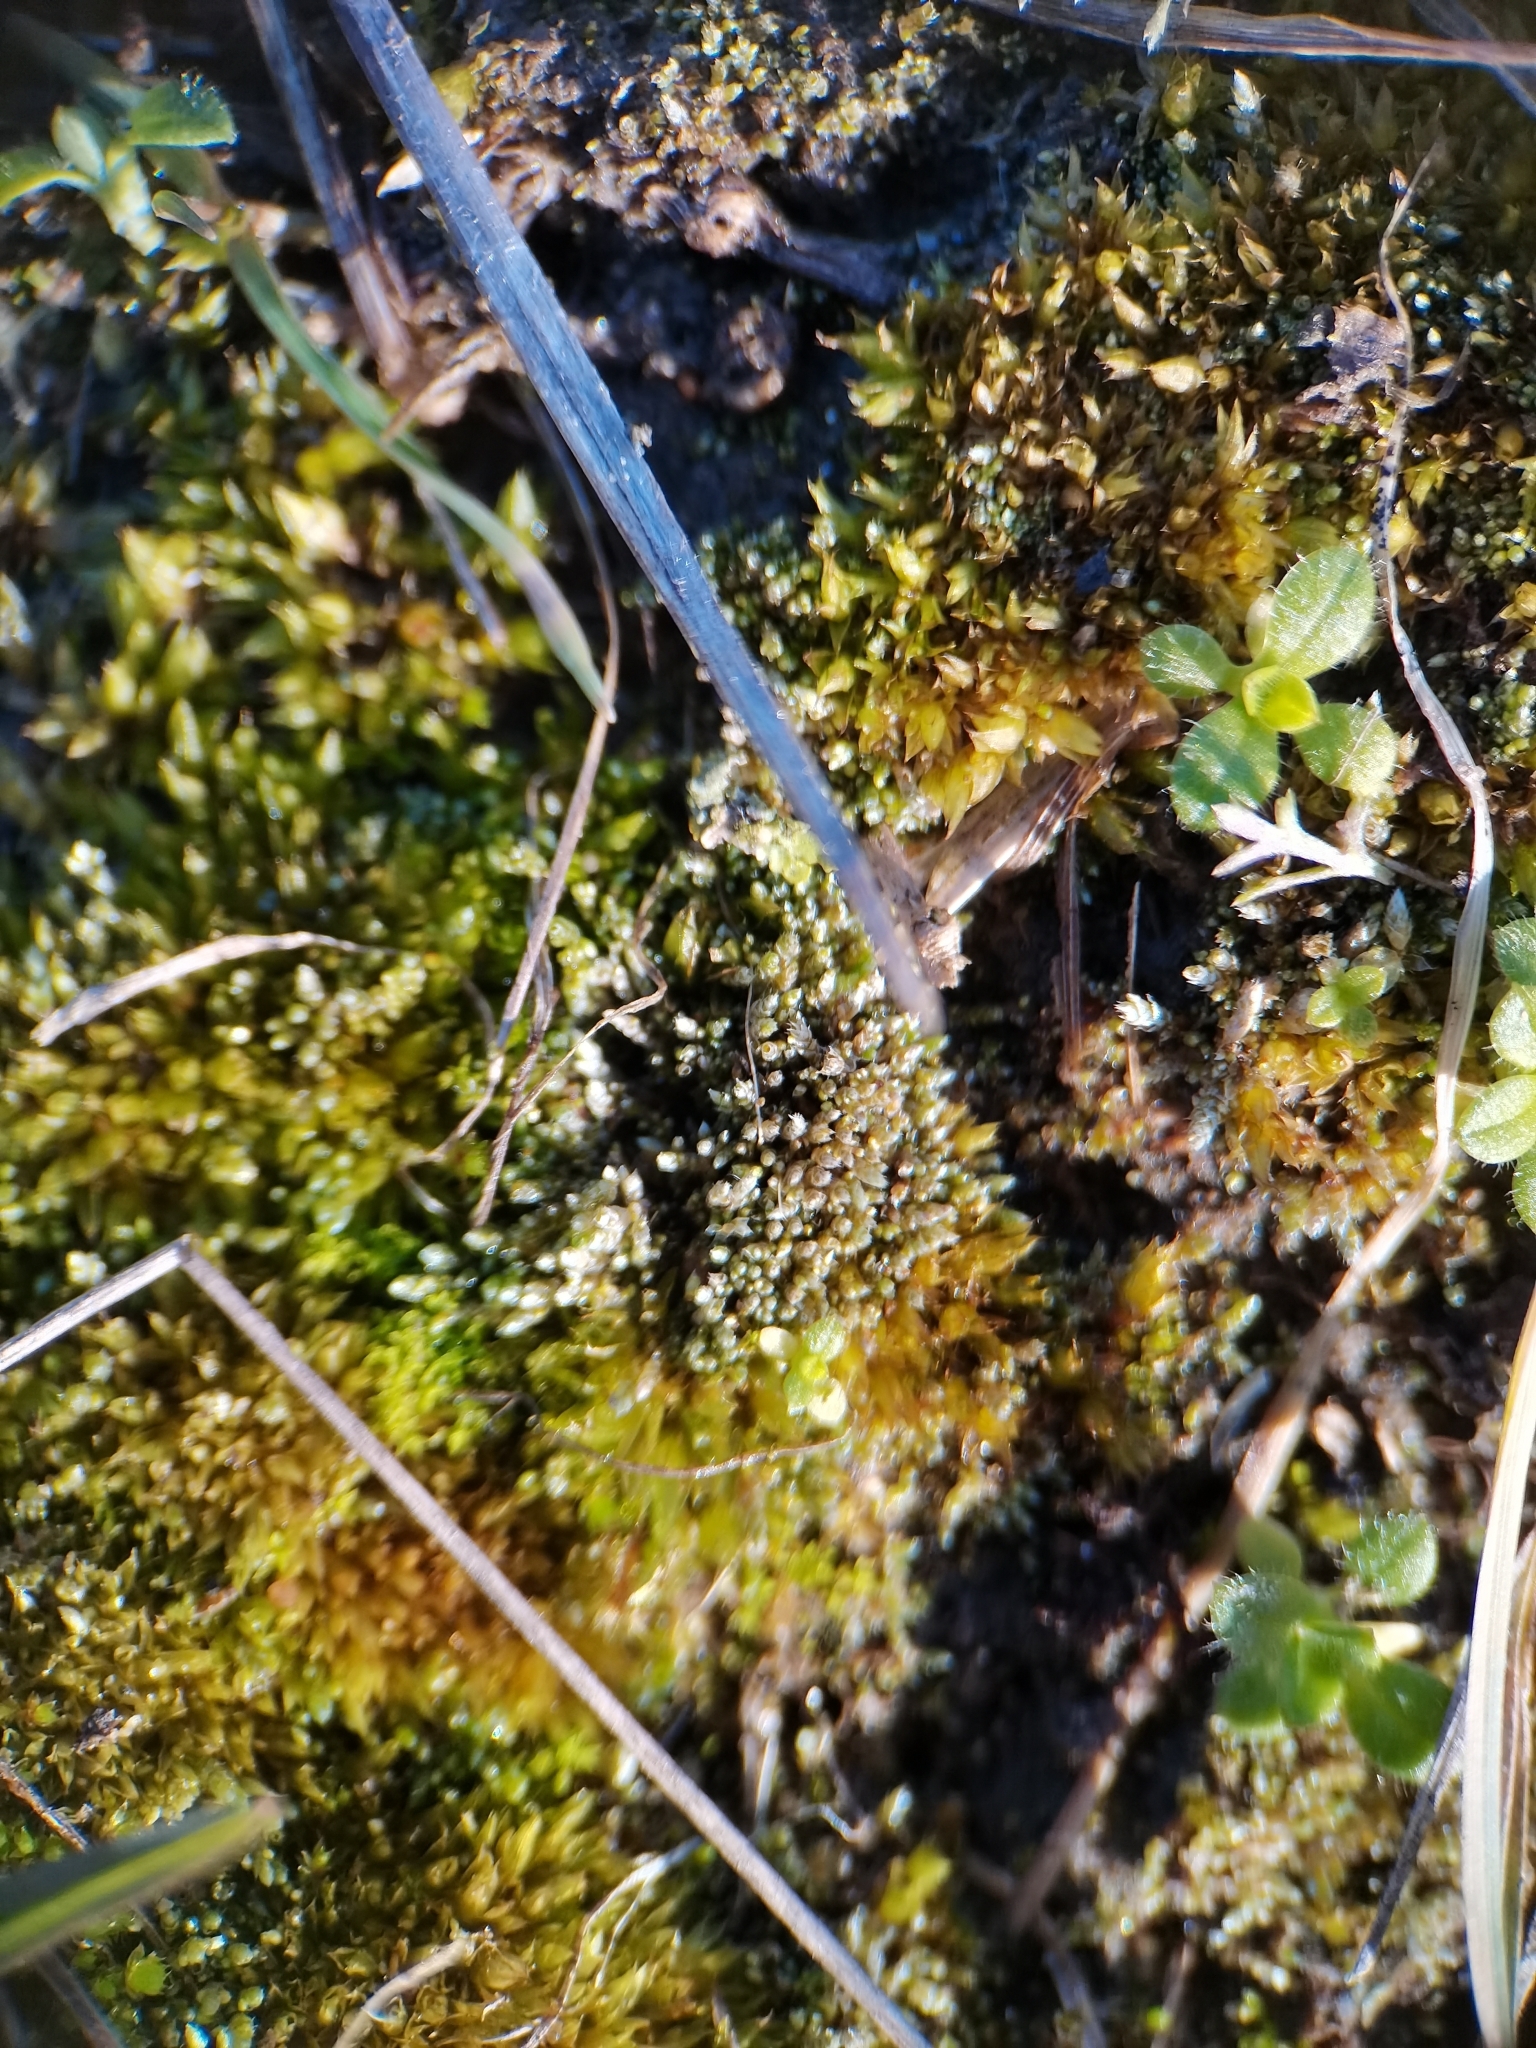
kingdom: Plantae
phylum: Bryophyta
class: Bryopsida
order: Bryales
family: Bryaceae
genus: Bryum
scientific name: Bryum argenteum
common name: Silver-moss
